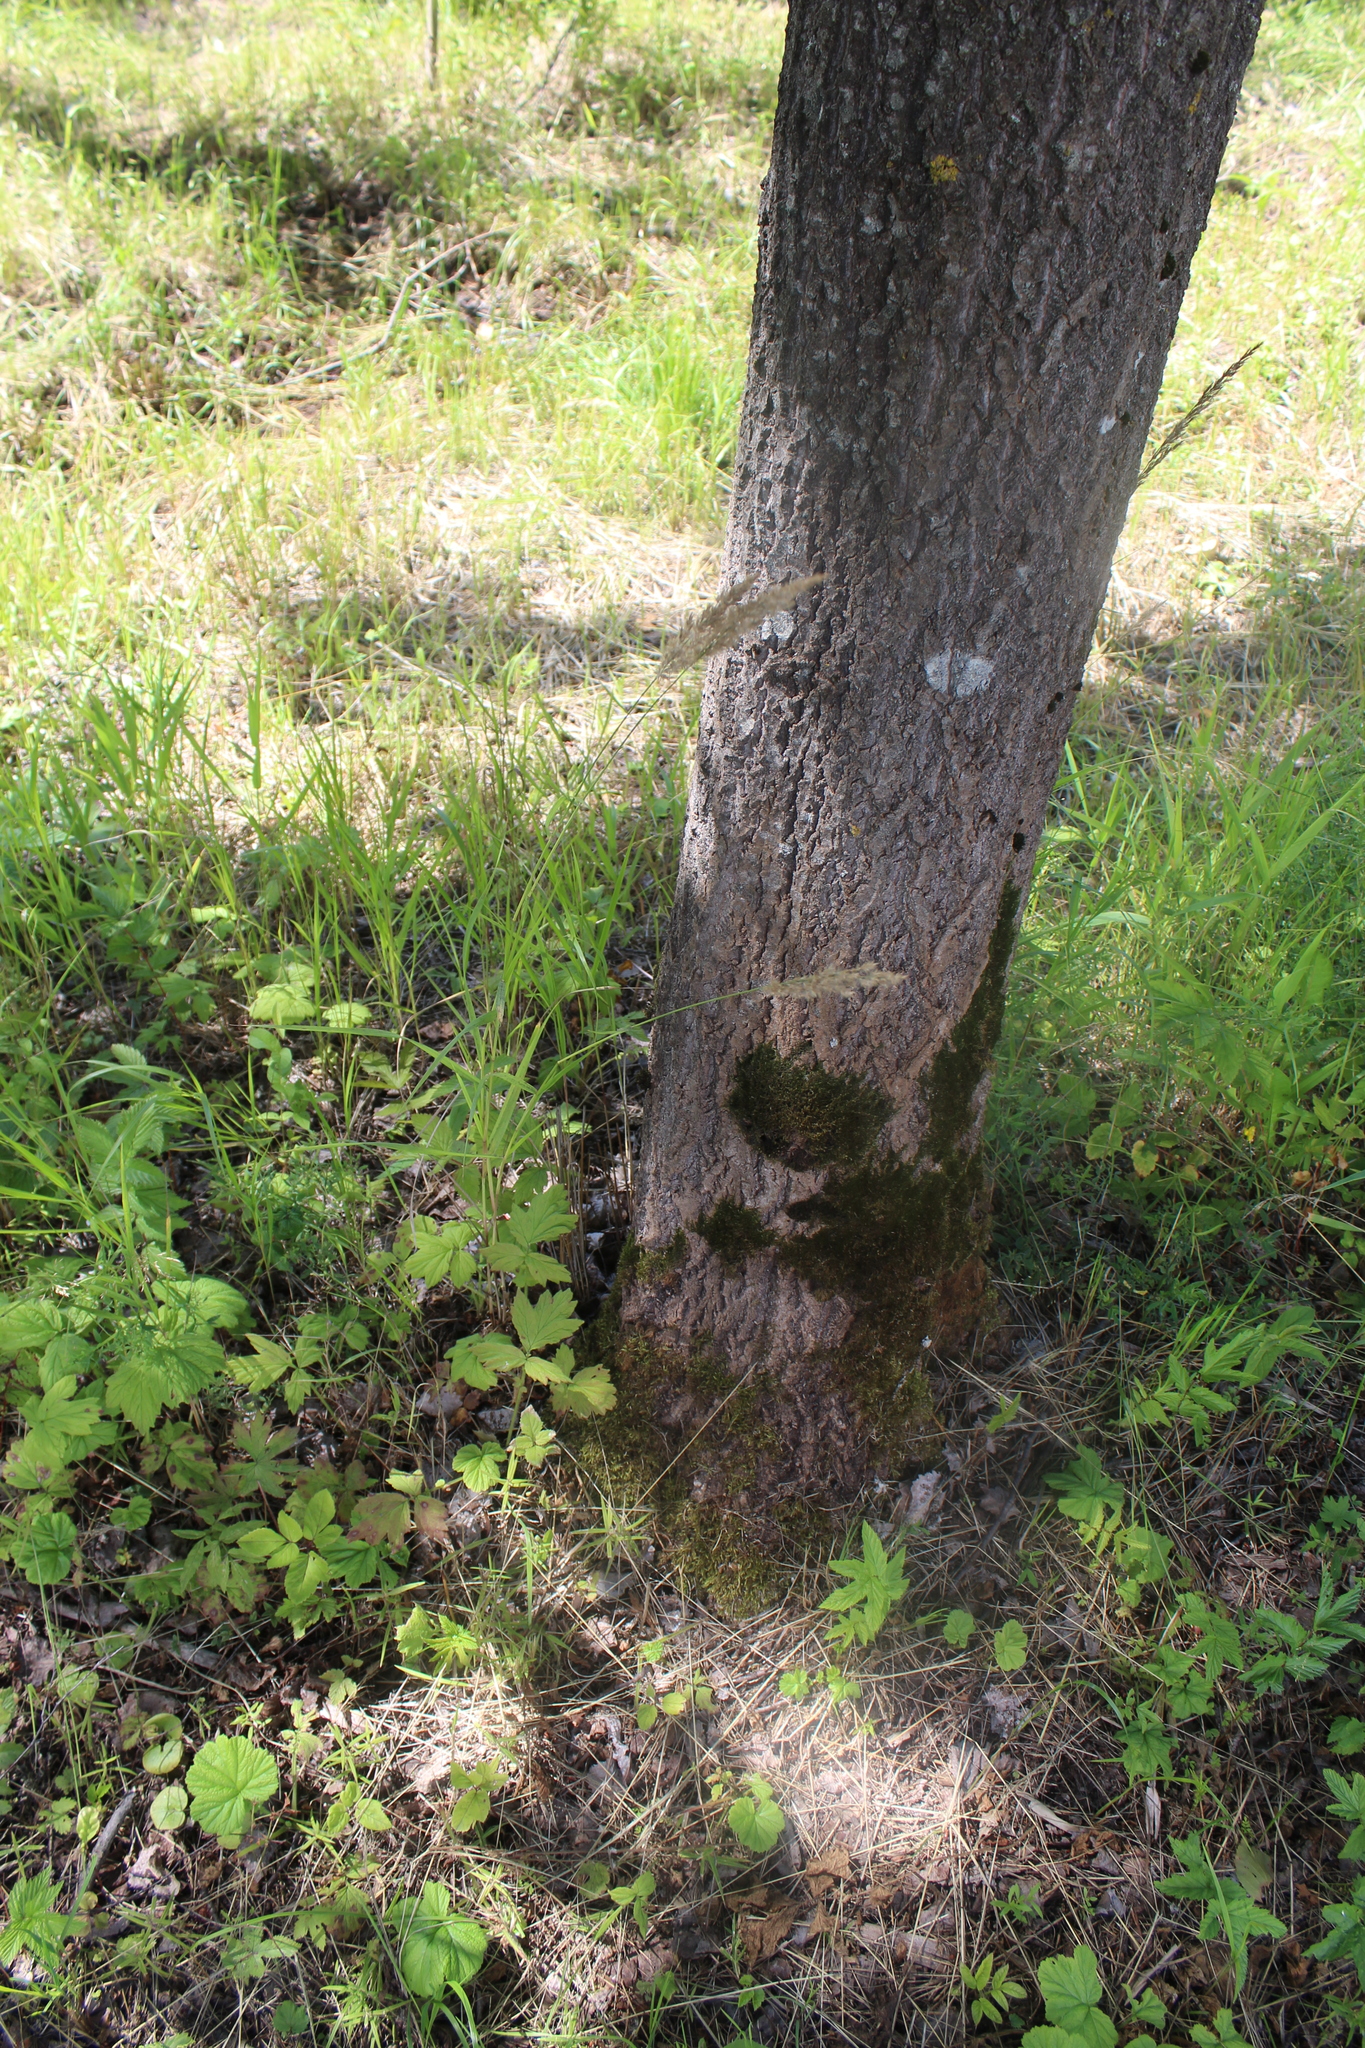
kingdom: Plantae
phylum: Tracheophyta
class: Liliopsida
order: Poales
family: Poaceae
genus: Calamagrostis
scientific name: Calamagrostis canescens
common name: Purple small-reed
